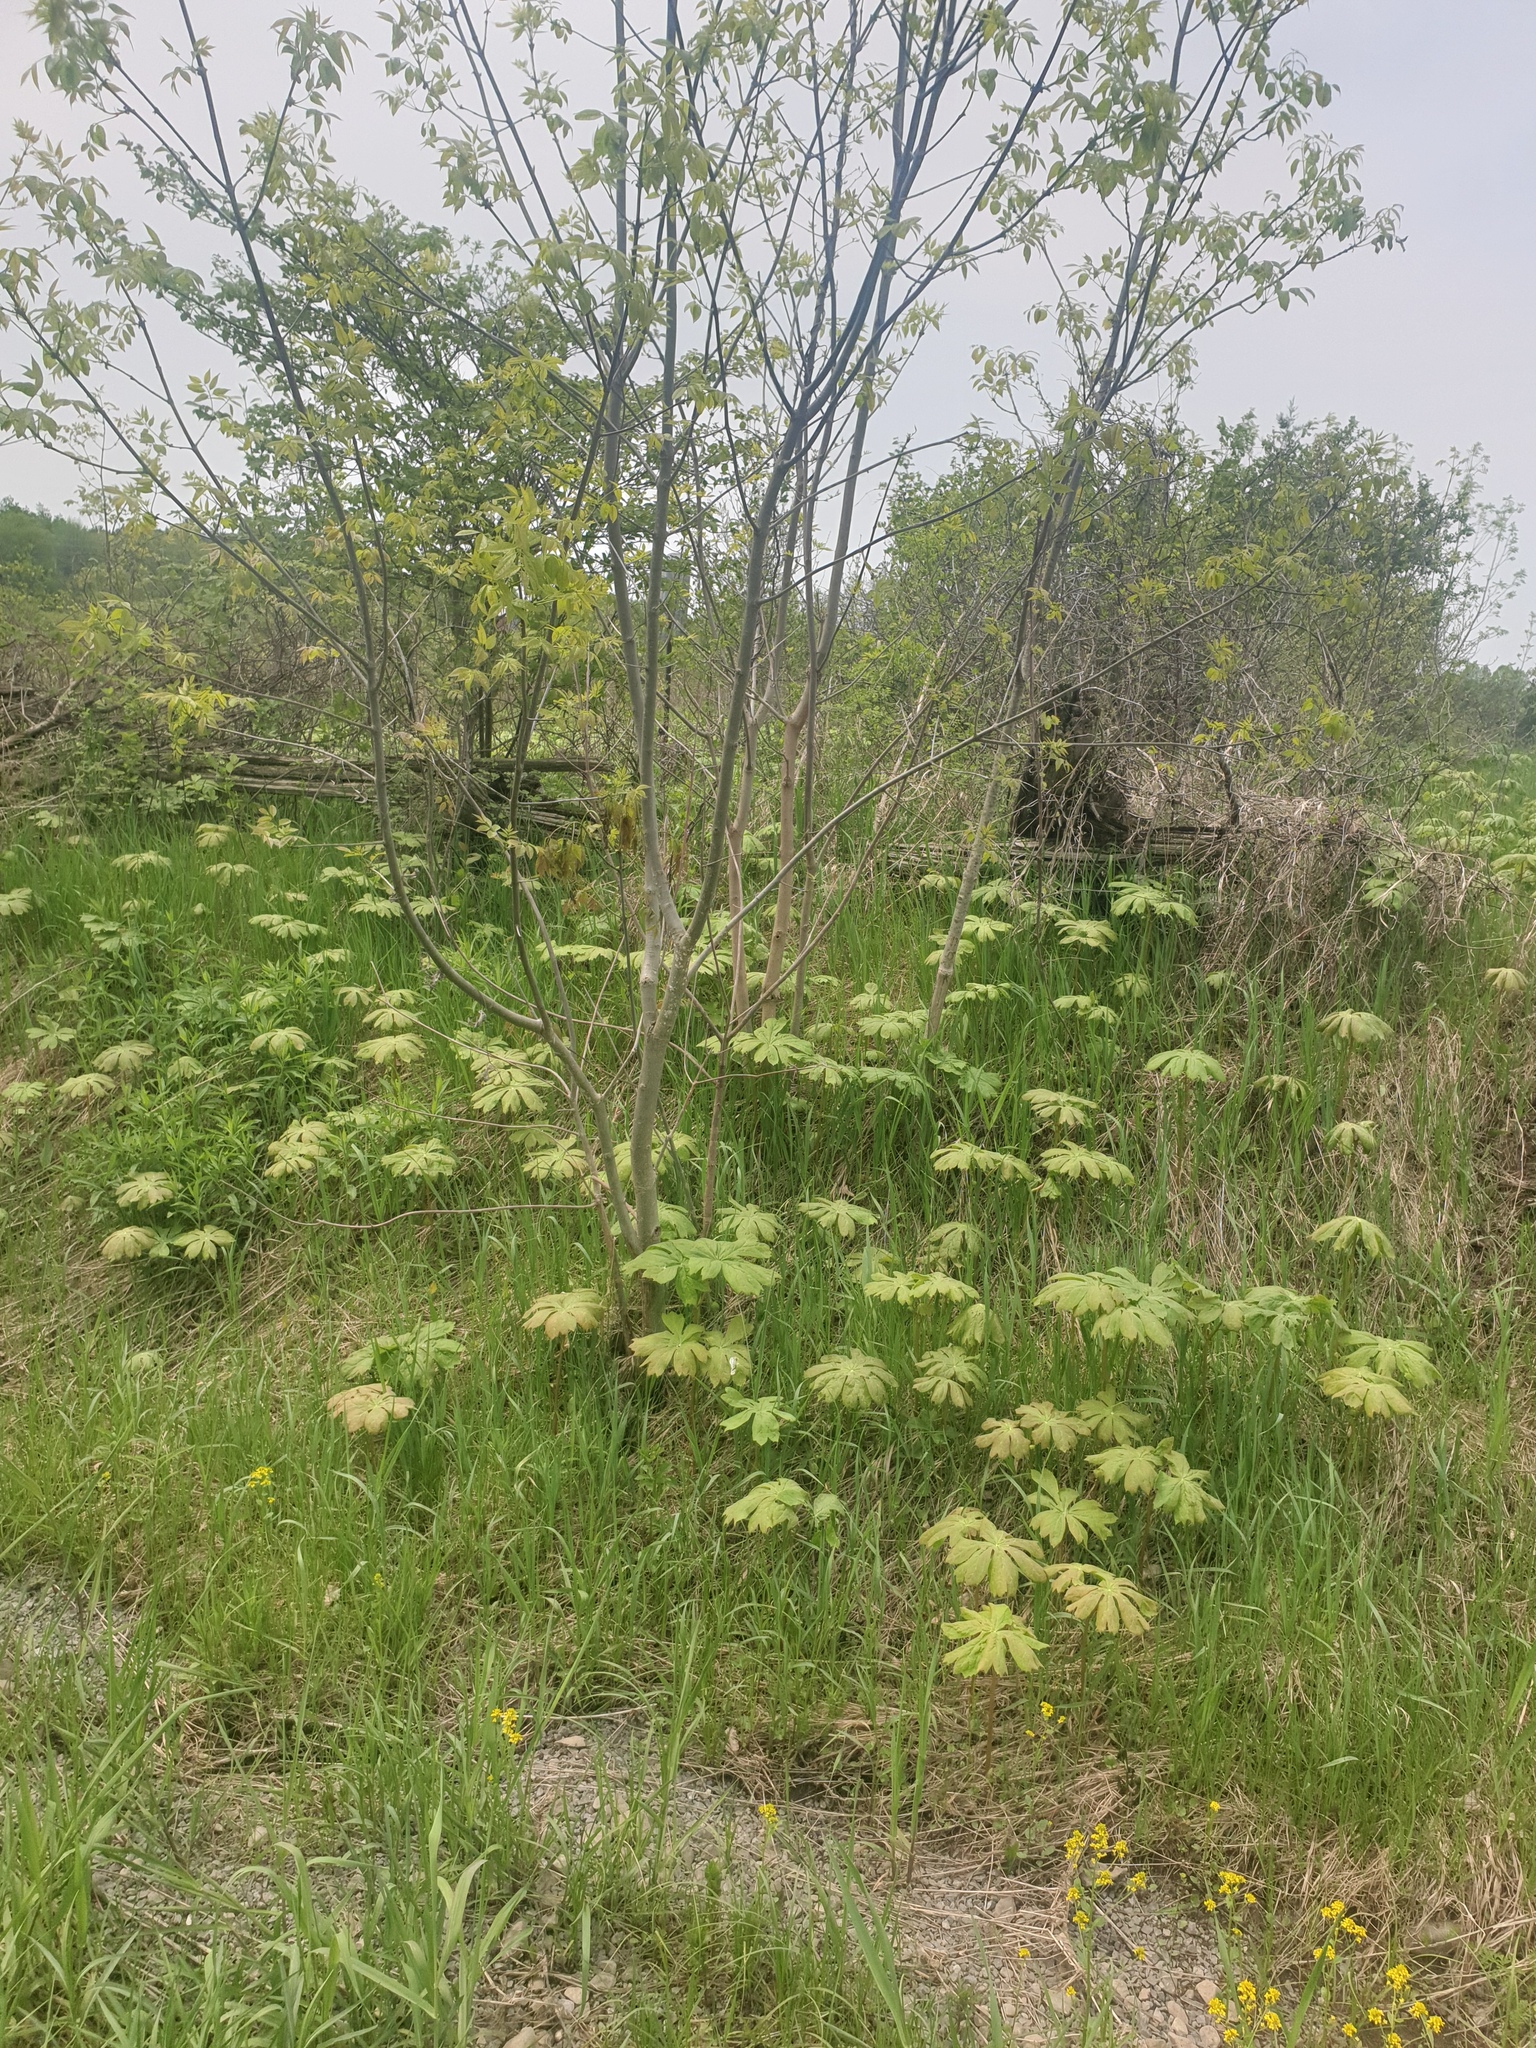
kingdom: Plantae
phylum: Tracheophyta
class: Magnoliopsida
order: Ranunculales
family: Berberidaceae
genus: Podophyllum
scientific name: Podophyllum peltatum
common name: Wild mandrake
